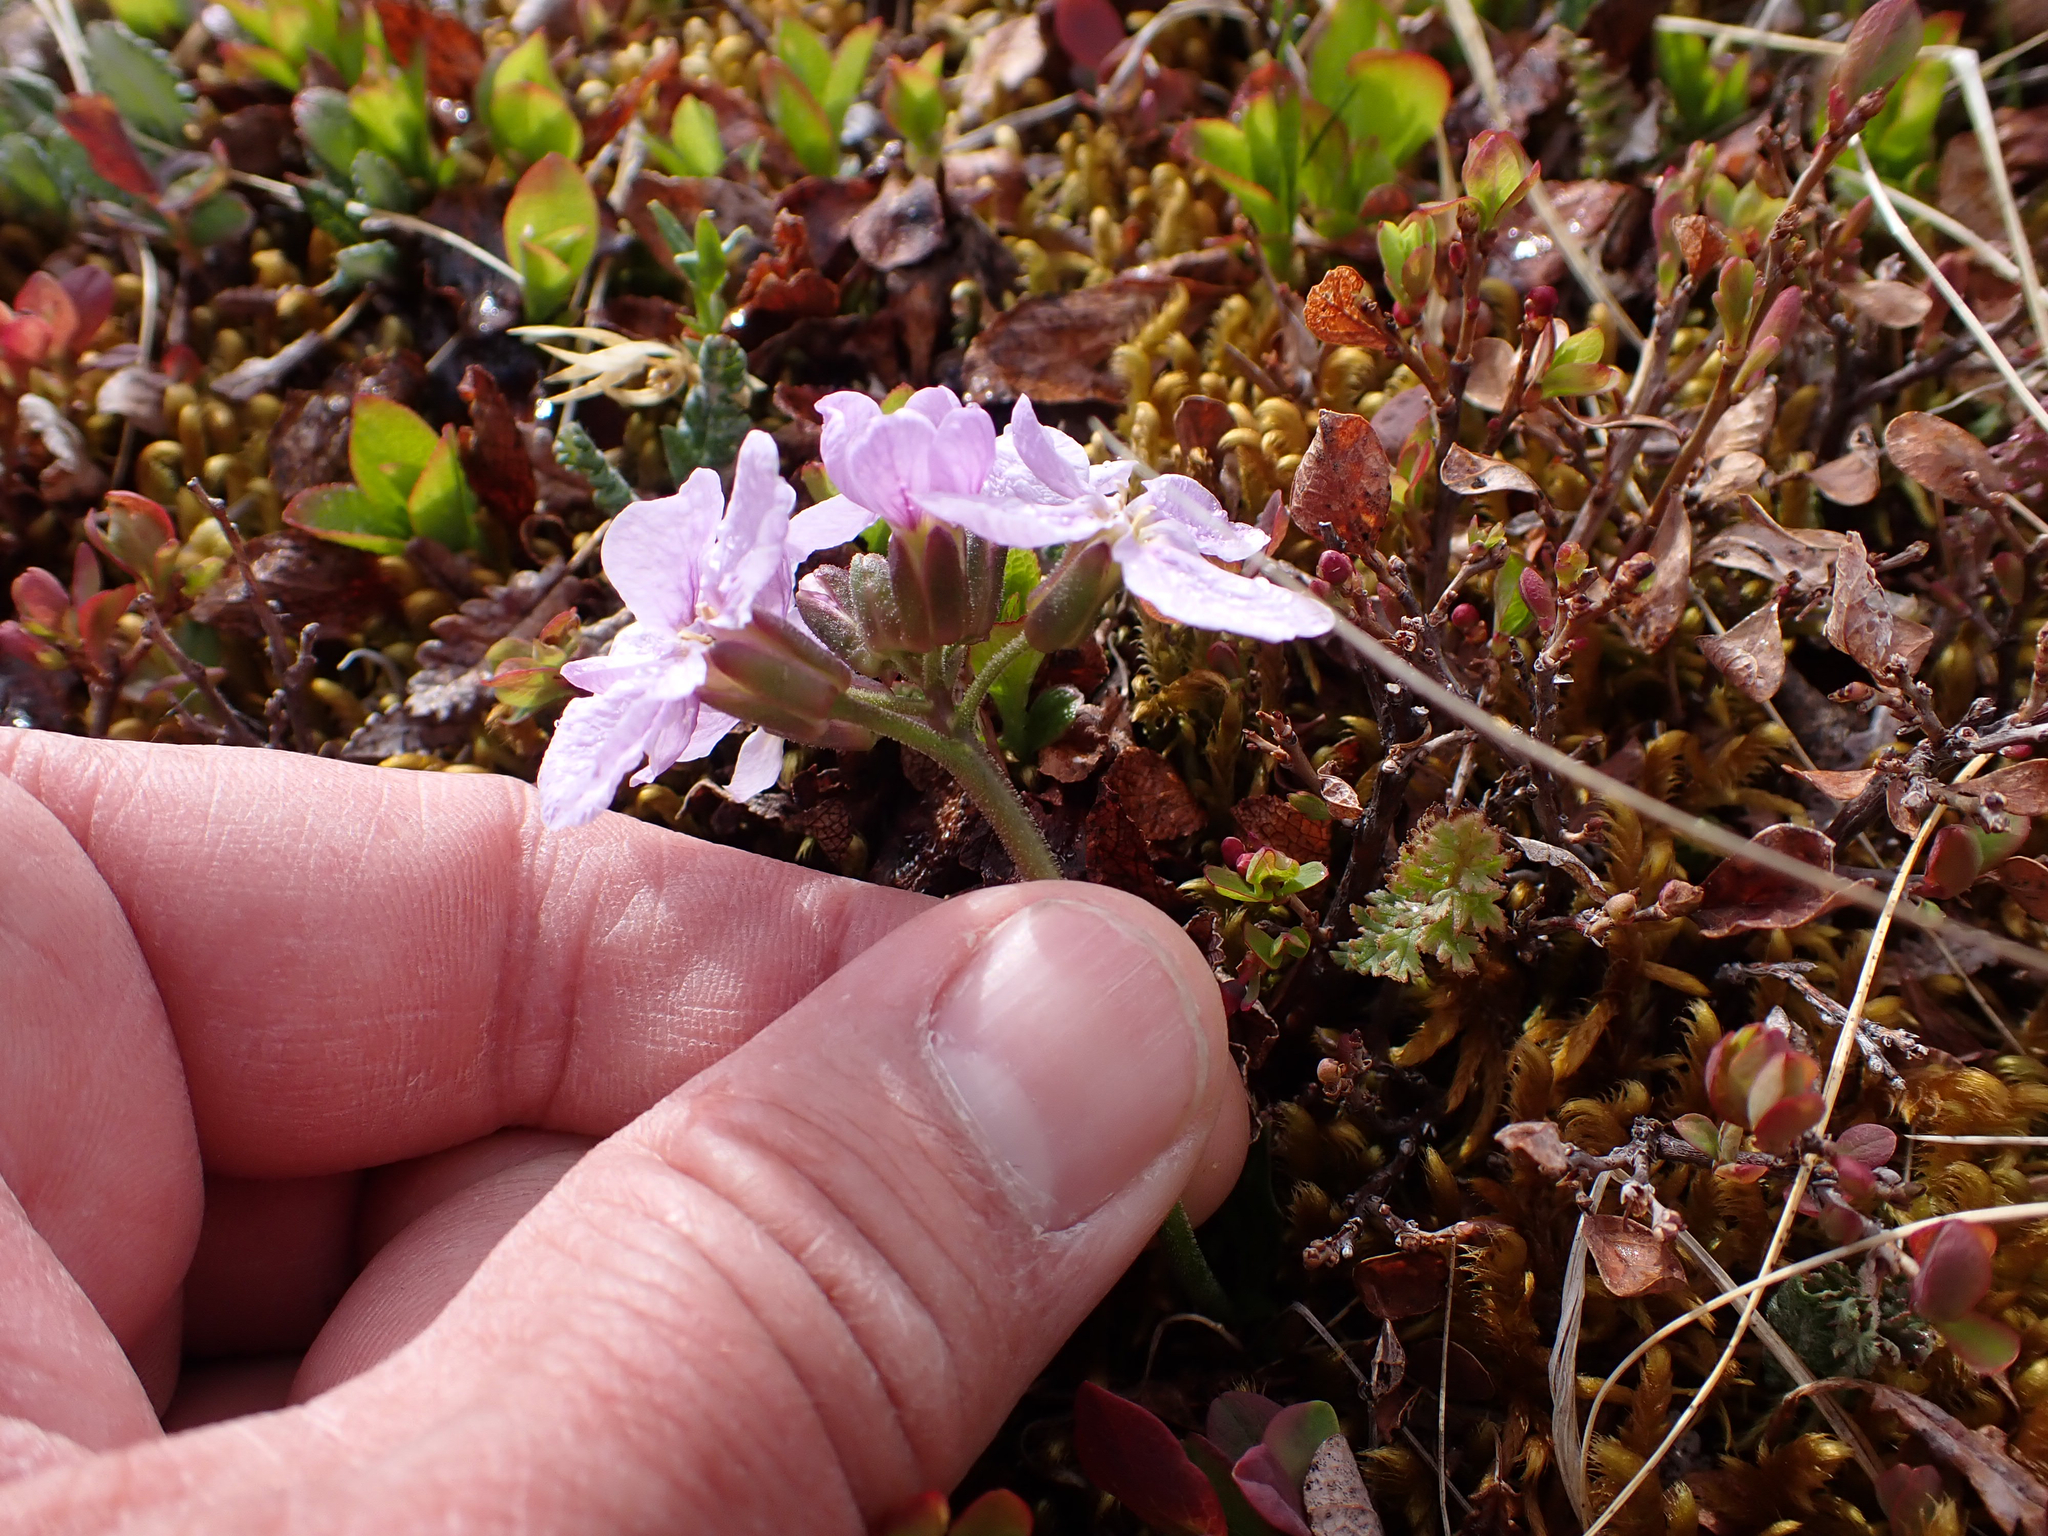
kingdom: Plantae
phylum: Tracheophyta
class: Magnoliopsida
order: Brassicales
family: Brassicaceae
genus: Parrya
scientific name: Parrya nudicaulis
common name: Naked-stemmed false wallflower
